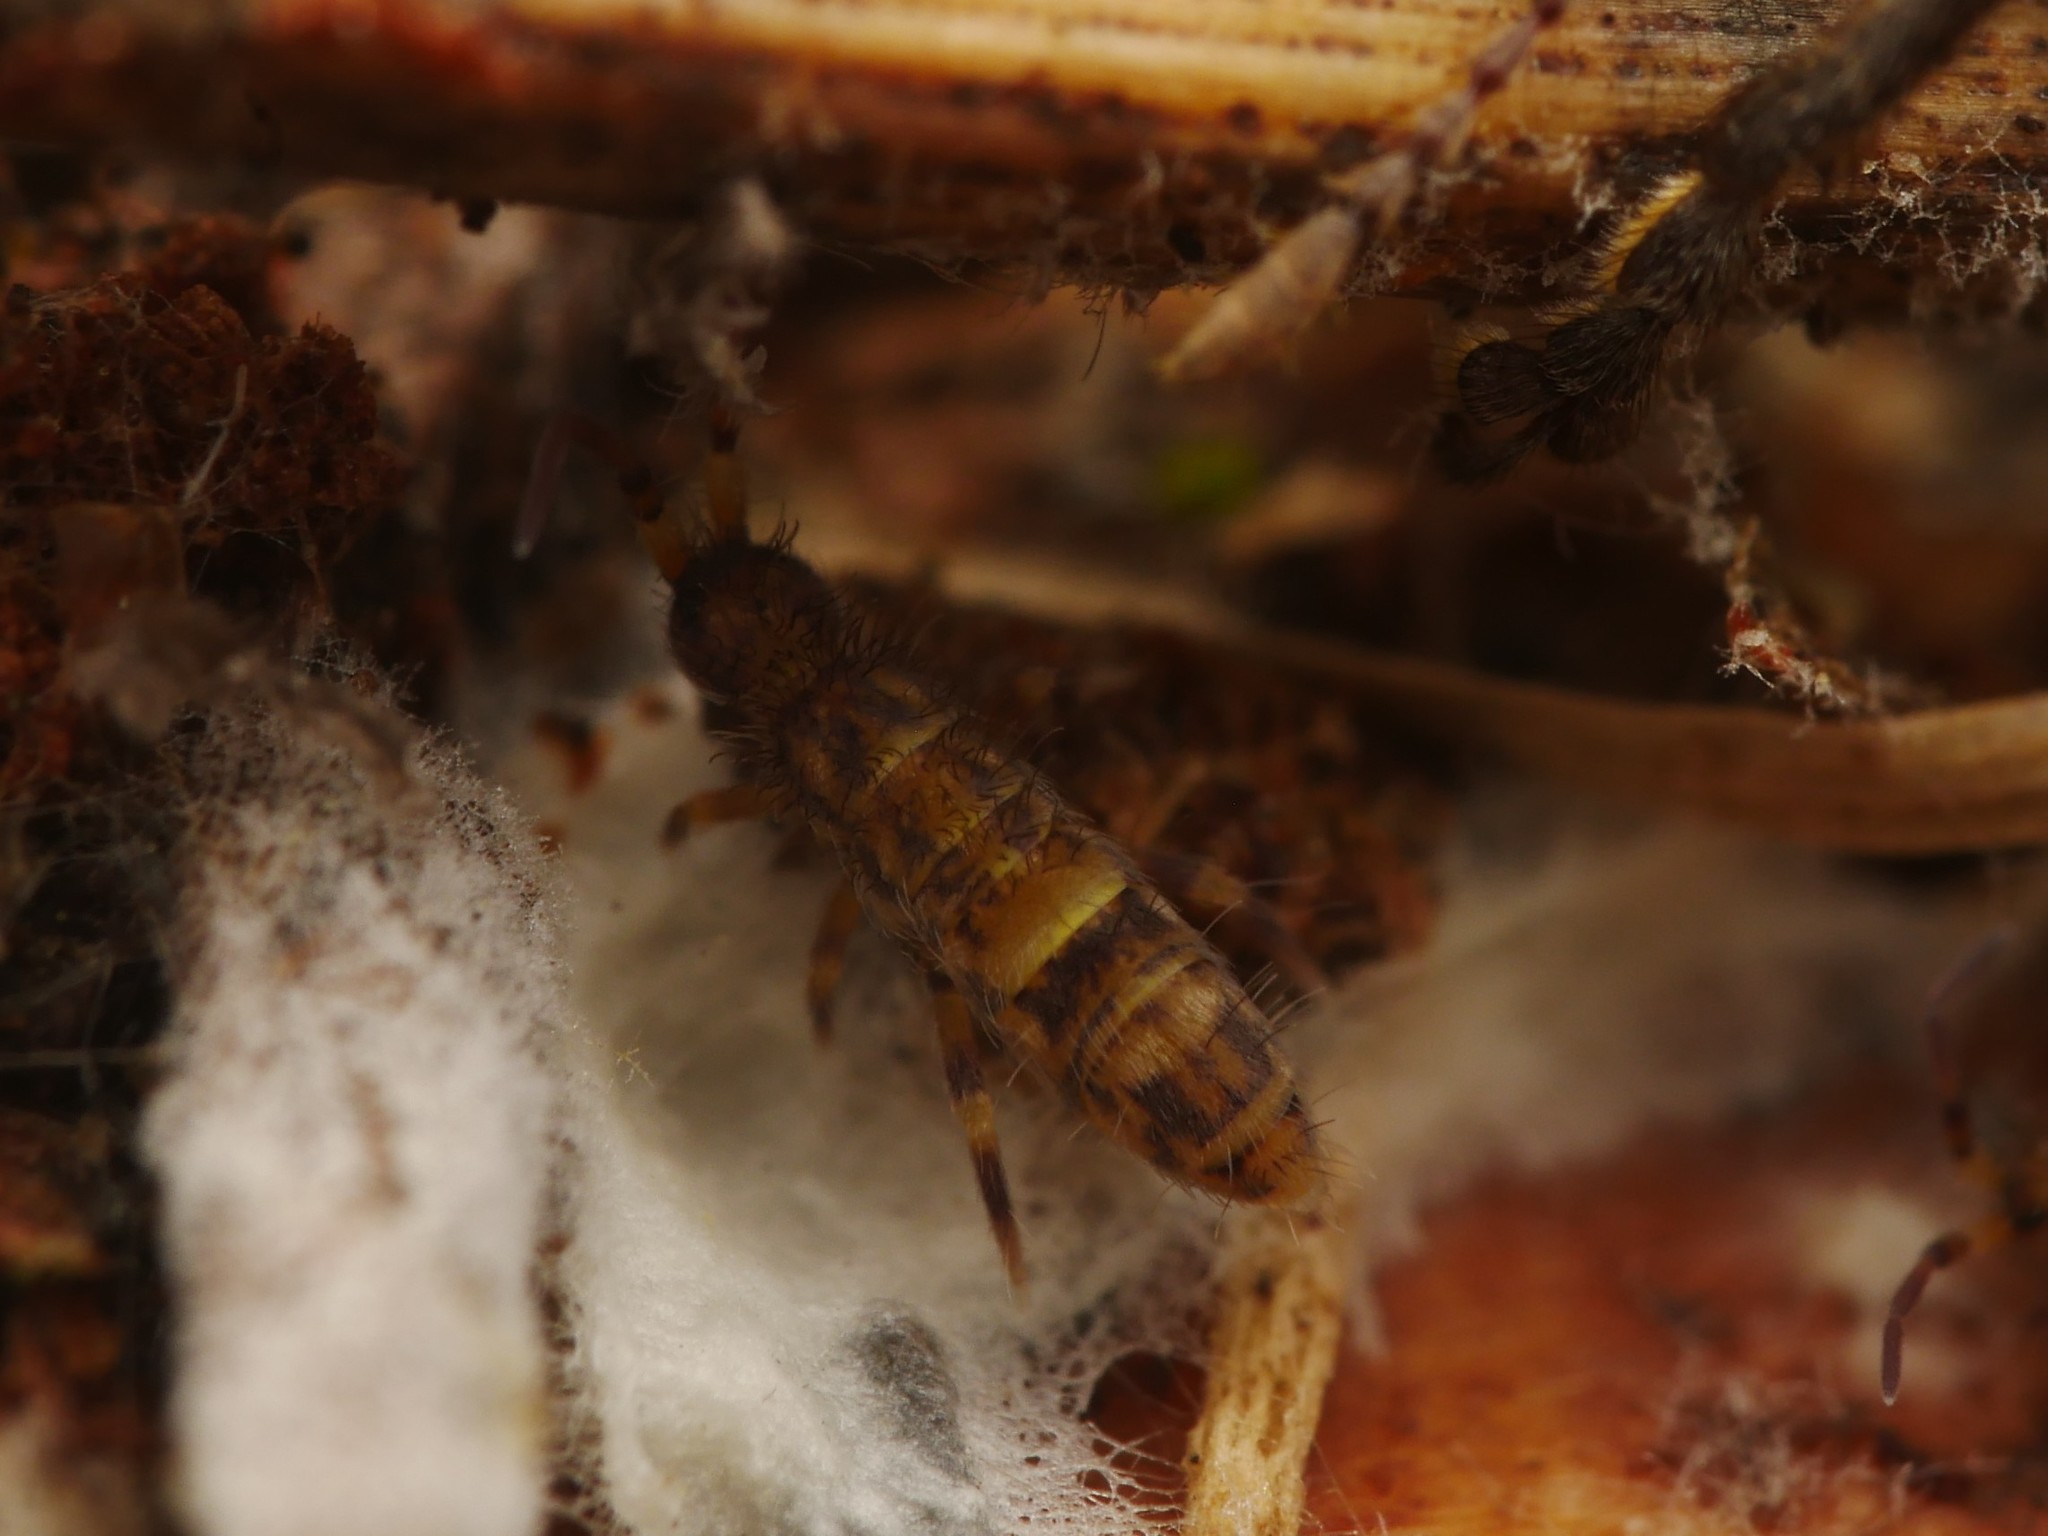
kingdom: Animalia
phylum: Arthropoda
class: Collembola
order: Entomobryomorpha
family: Orchesellidae
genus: Orchesella
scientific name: Orchesella cincta
